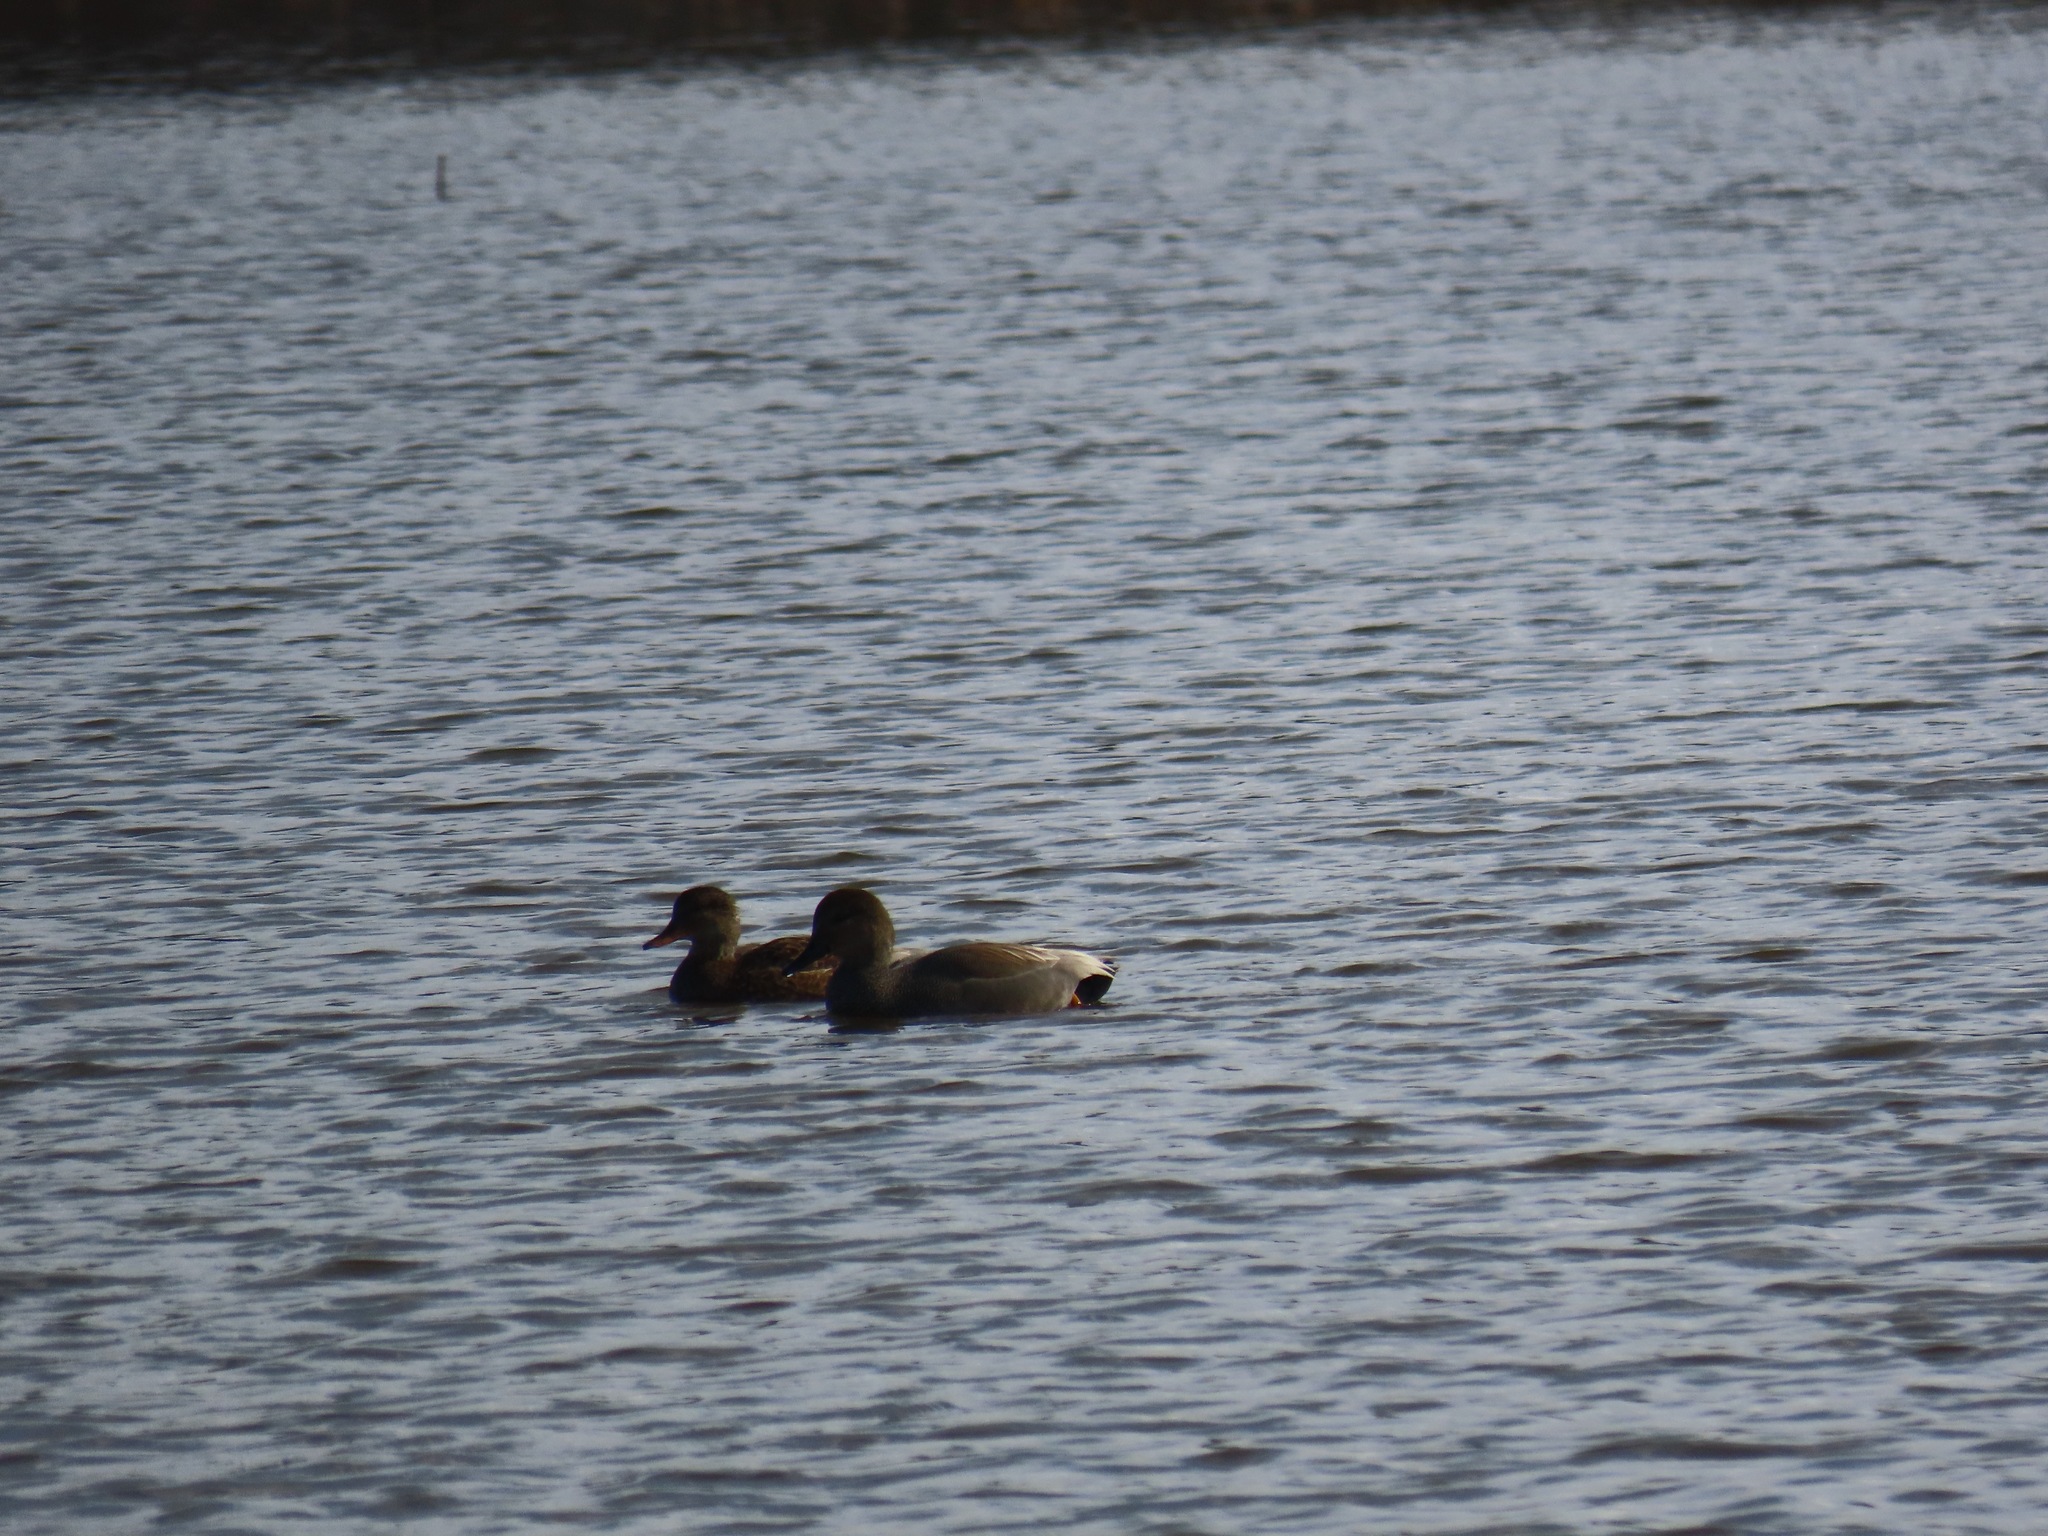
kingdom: Animalia
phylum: Chordata
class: Aves
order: Anseriformes
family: Anatidae
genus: Mareca
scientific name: Mareca strepera
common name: Gadwall
